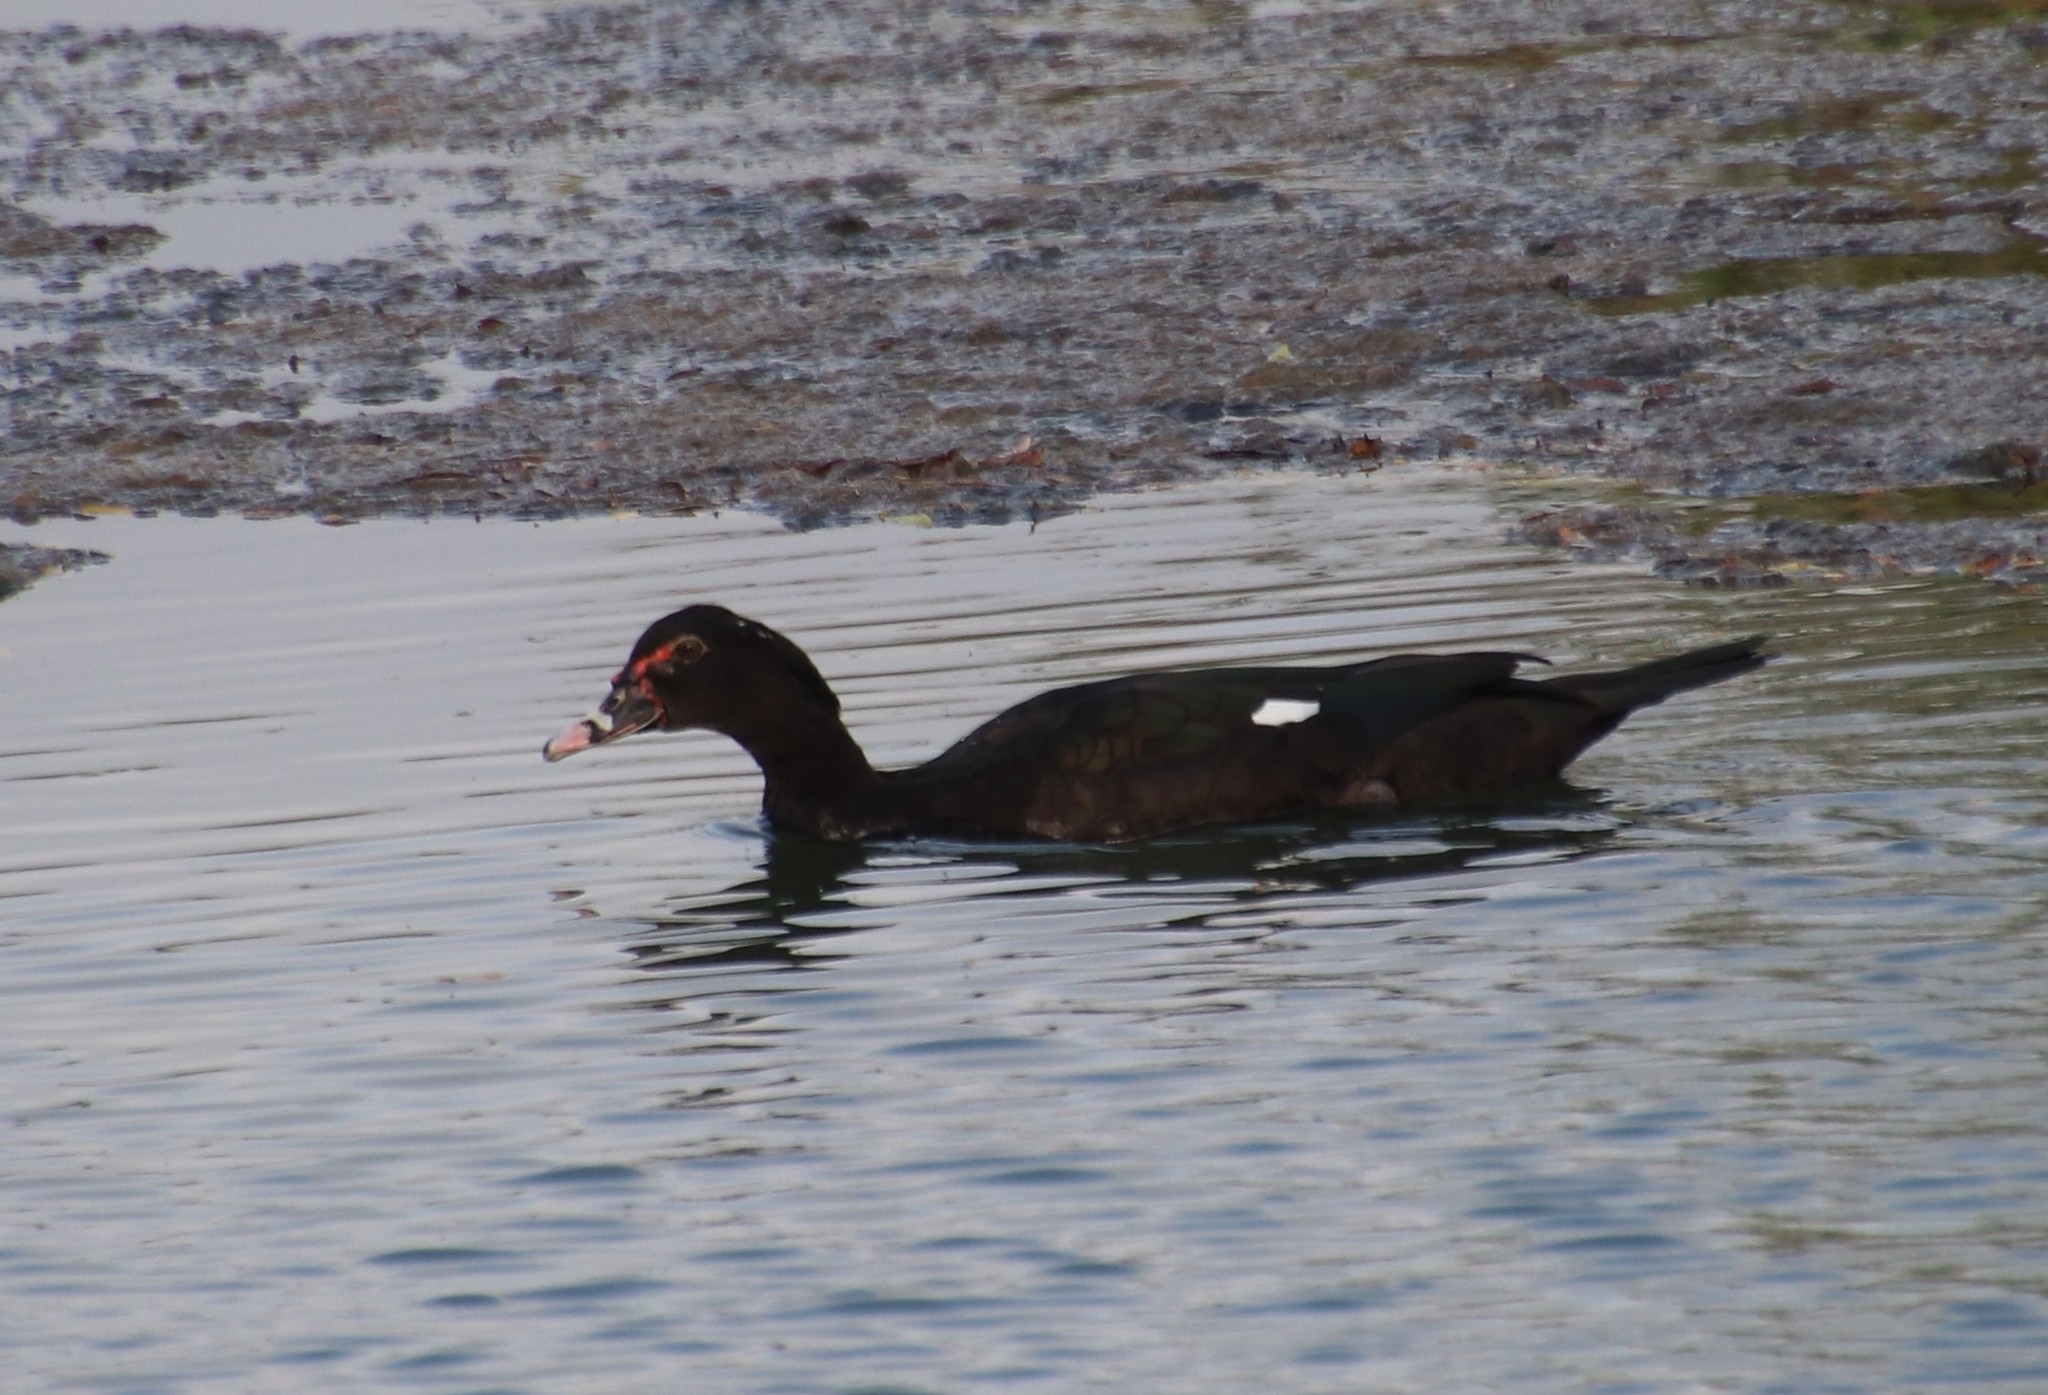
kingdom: Animalia
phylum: Chordata
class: Aves
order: Anseriformes
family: Anatidae
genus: Cairina
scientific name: Cairina moschata
